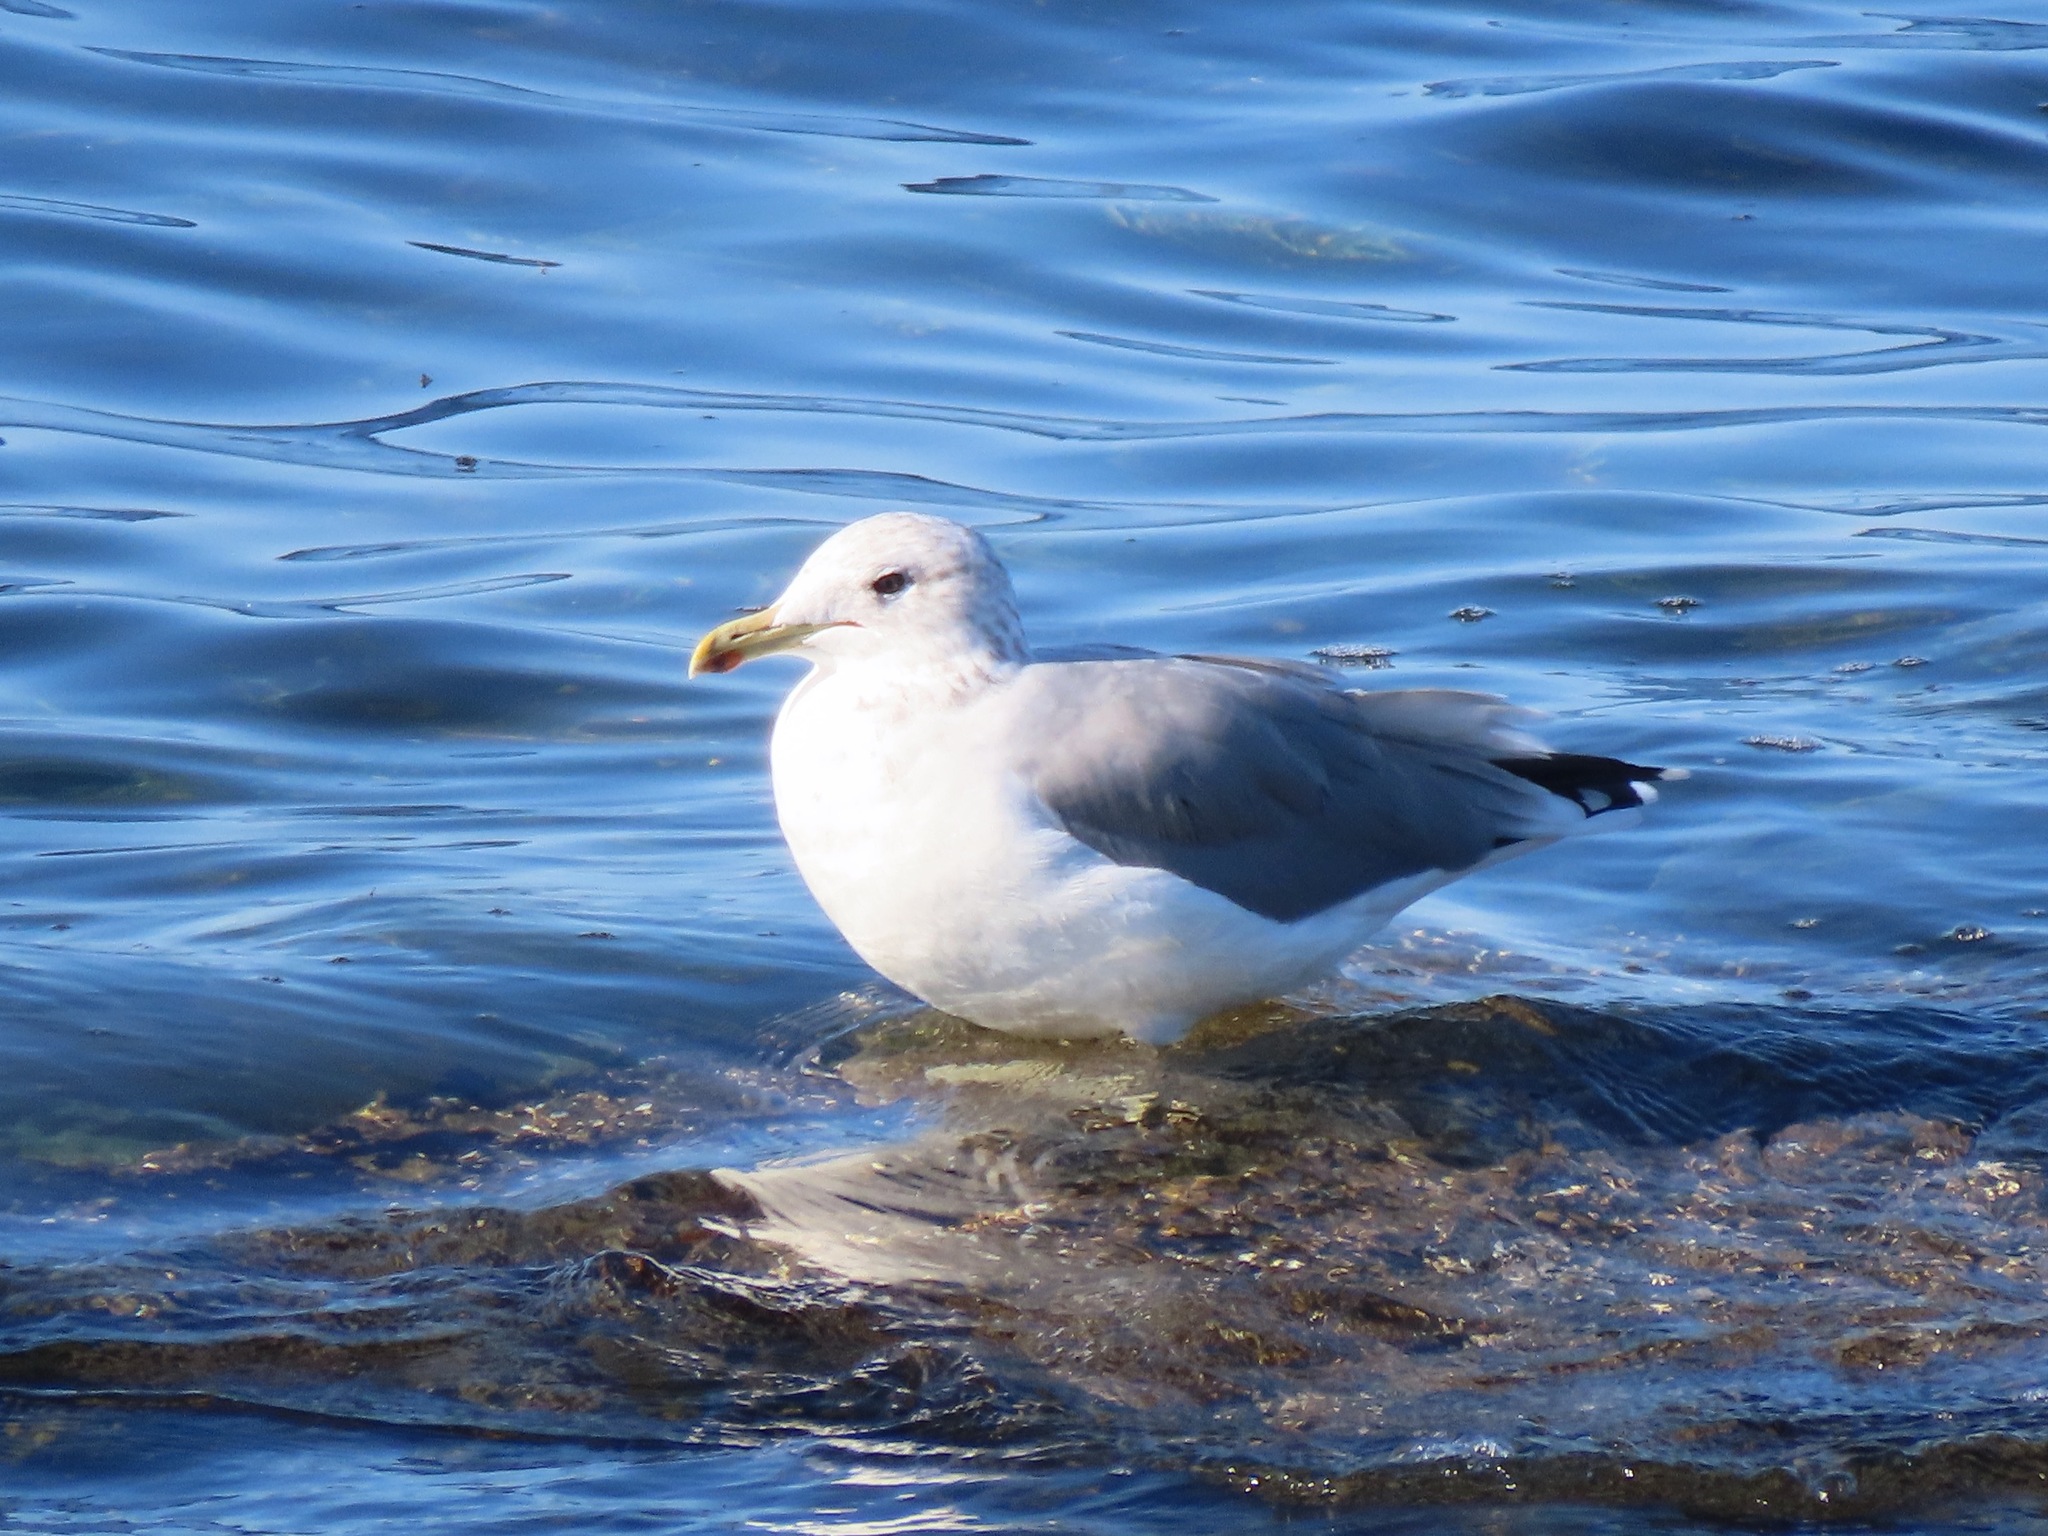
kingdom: Animalia
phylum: Chordata
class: Aves
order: Charadriiformes
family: Laridae
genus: Larus
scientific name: Larus californicus
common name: California gull
